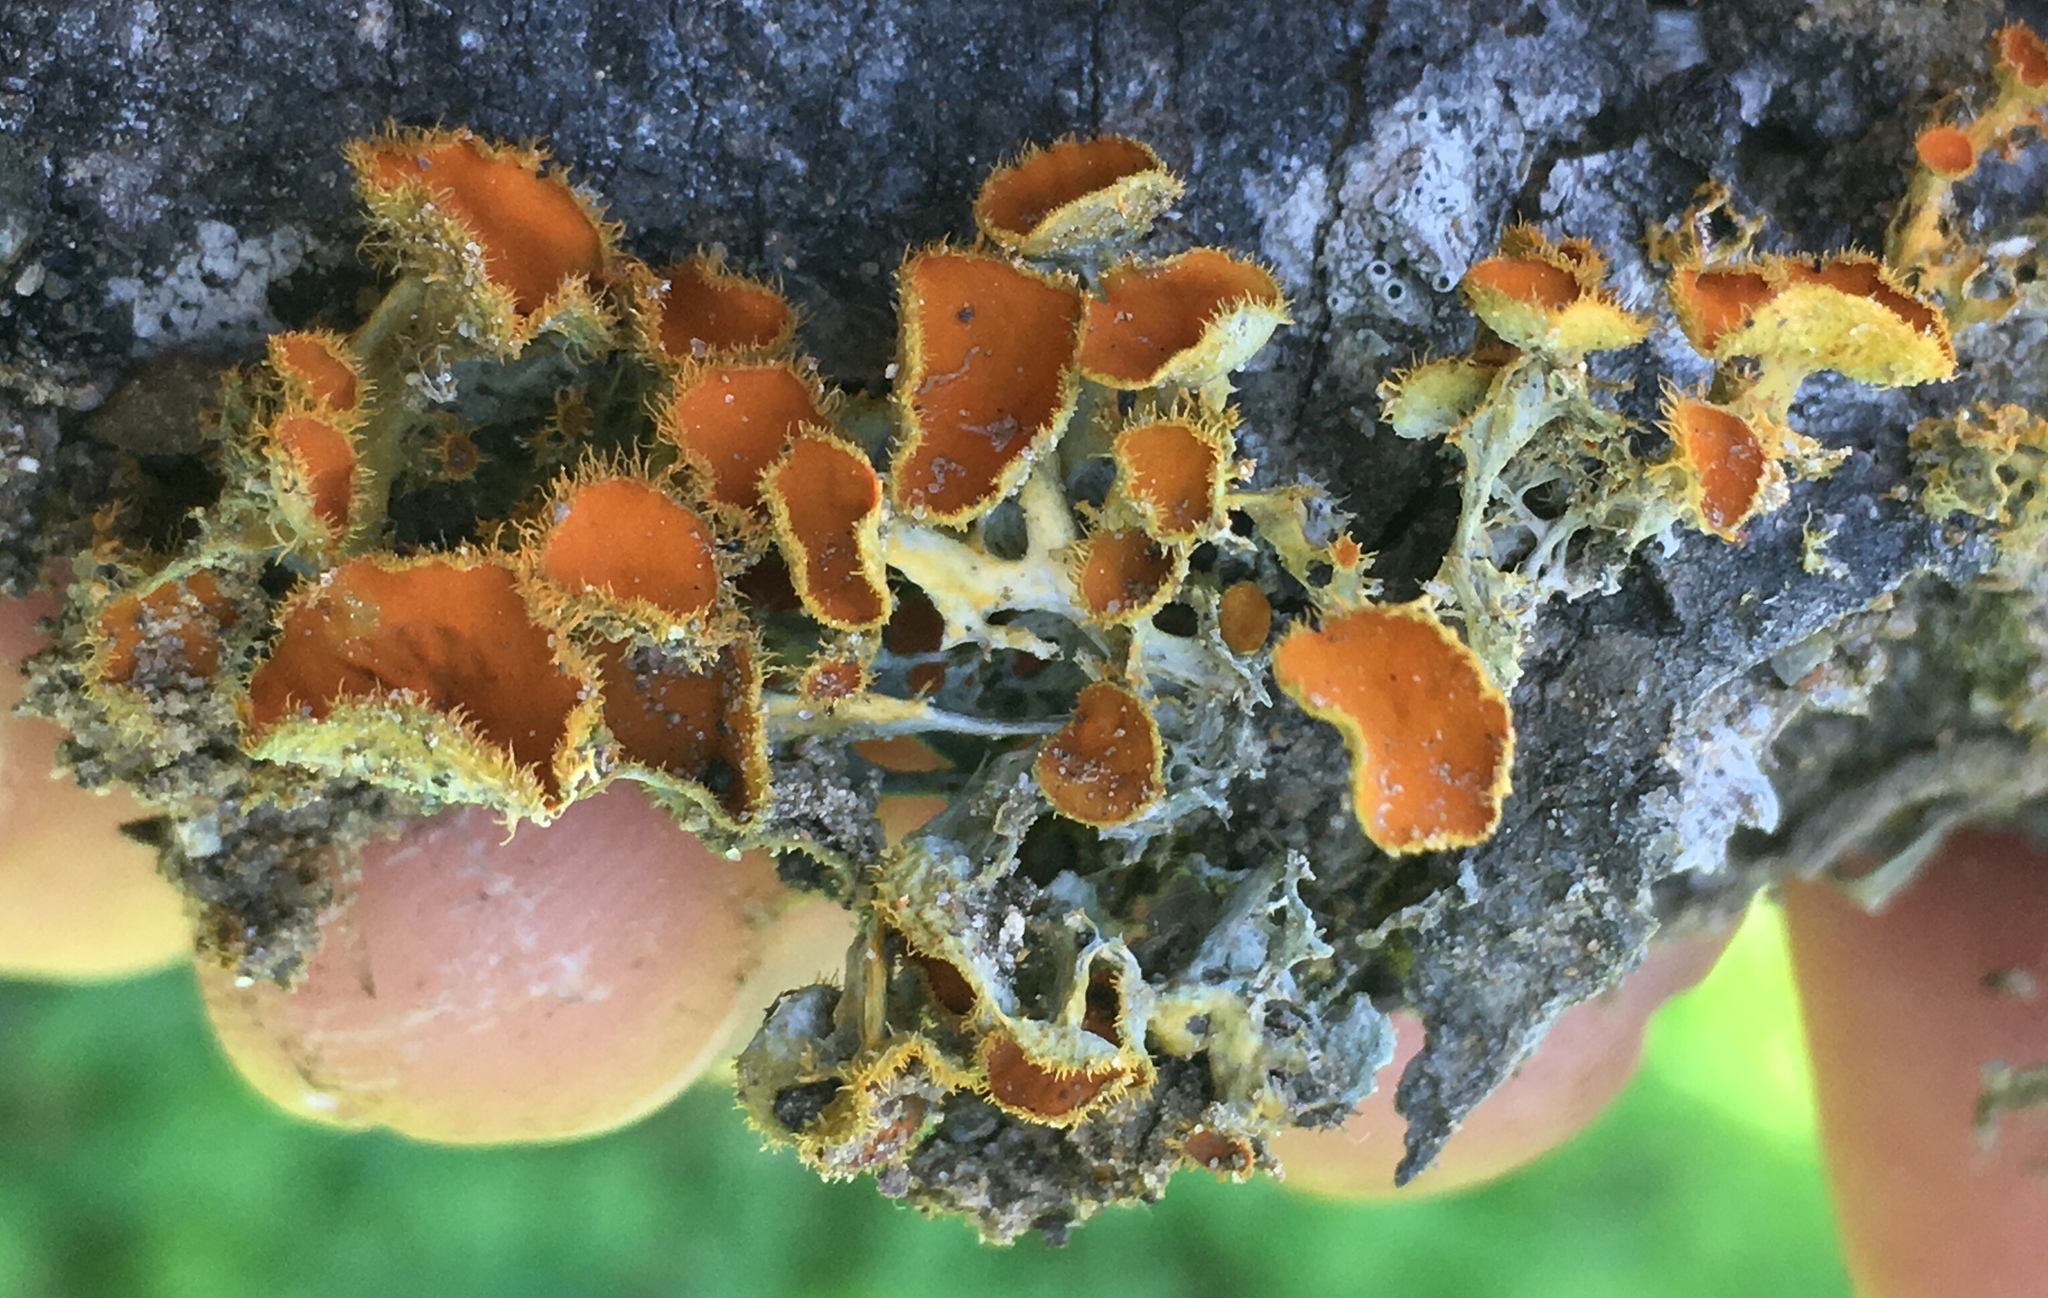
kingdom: Fungi
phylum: Ascomycota
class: Lecanoromycetes
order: Teloschistales
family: Teloschistaceae
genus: Niorma
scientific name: Niorma chrysophthalma
